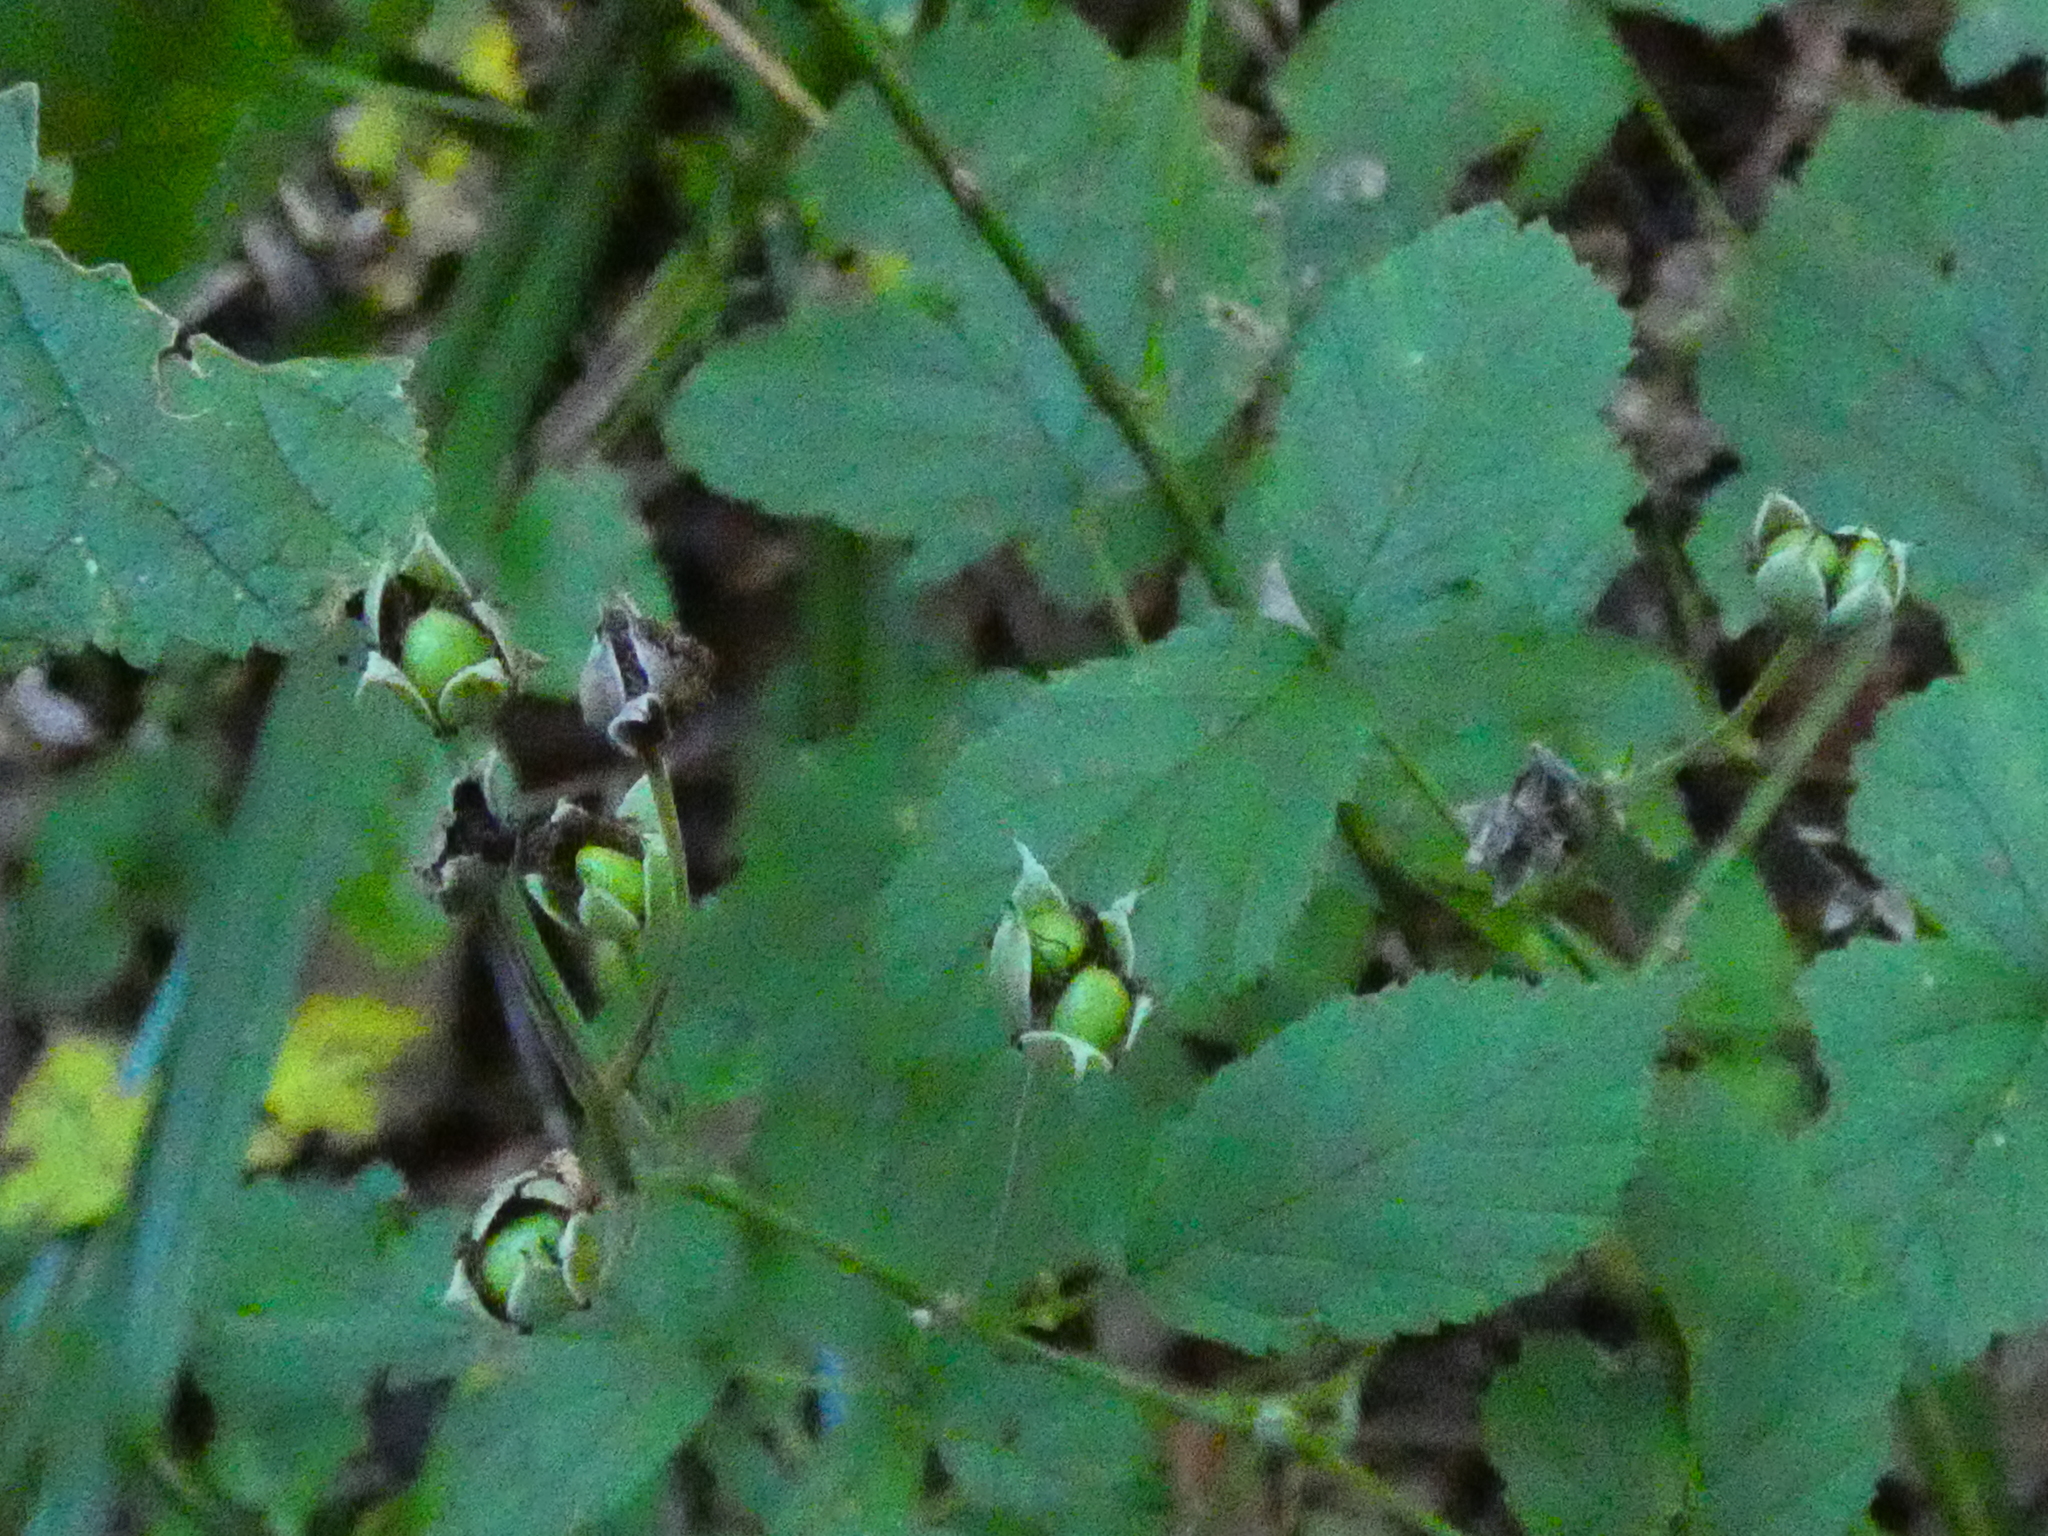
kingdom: Plantae
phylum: Tracheophyta
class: Magnoliopsida
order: Rosales
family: Rosaceae
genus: Rubus
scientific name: Rubus caesius
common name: Dewberry
